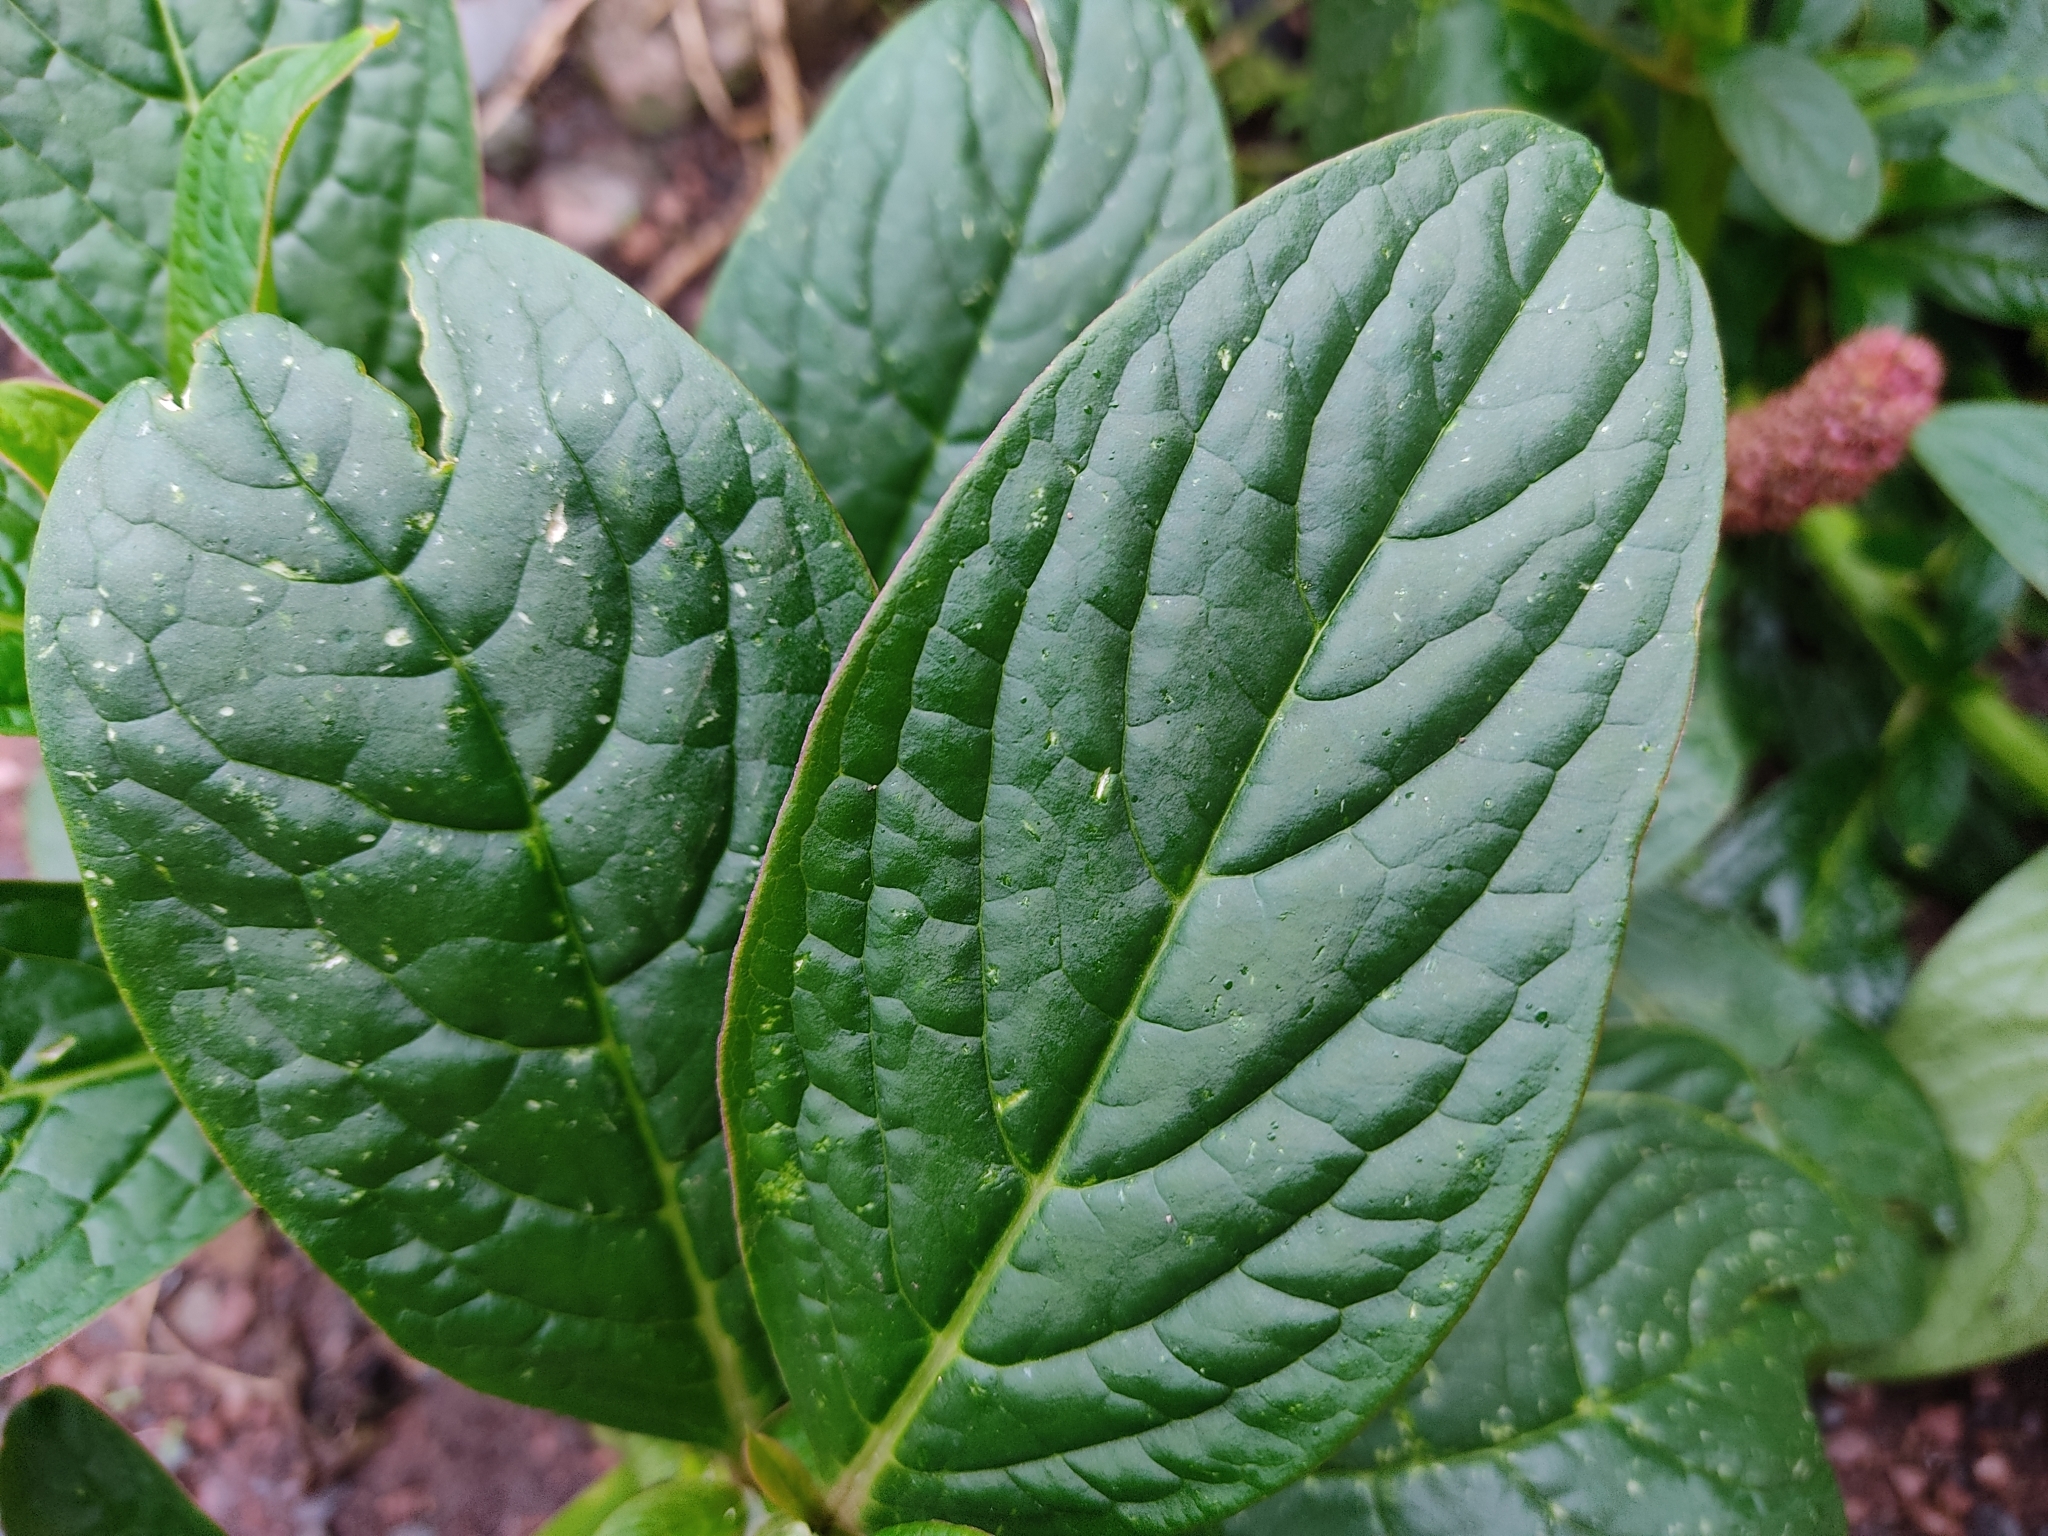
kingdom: Plantae
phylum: Tracheophyta
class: Magnoliopsida
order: Caryophyllales
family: Phytolaccaceae
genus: Phytolacca
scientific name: Phytolacca bogotensis
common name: Southern pokeweed
